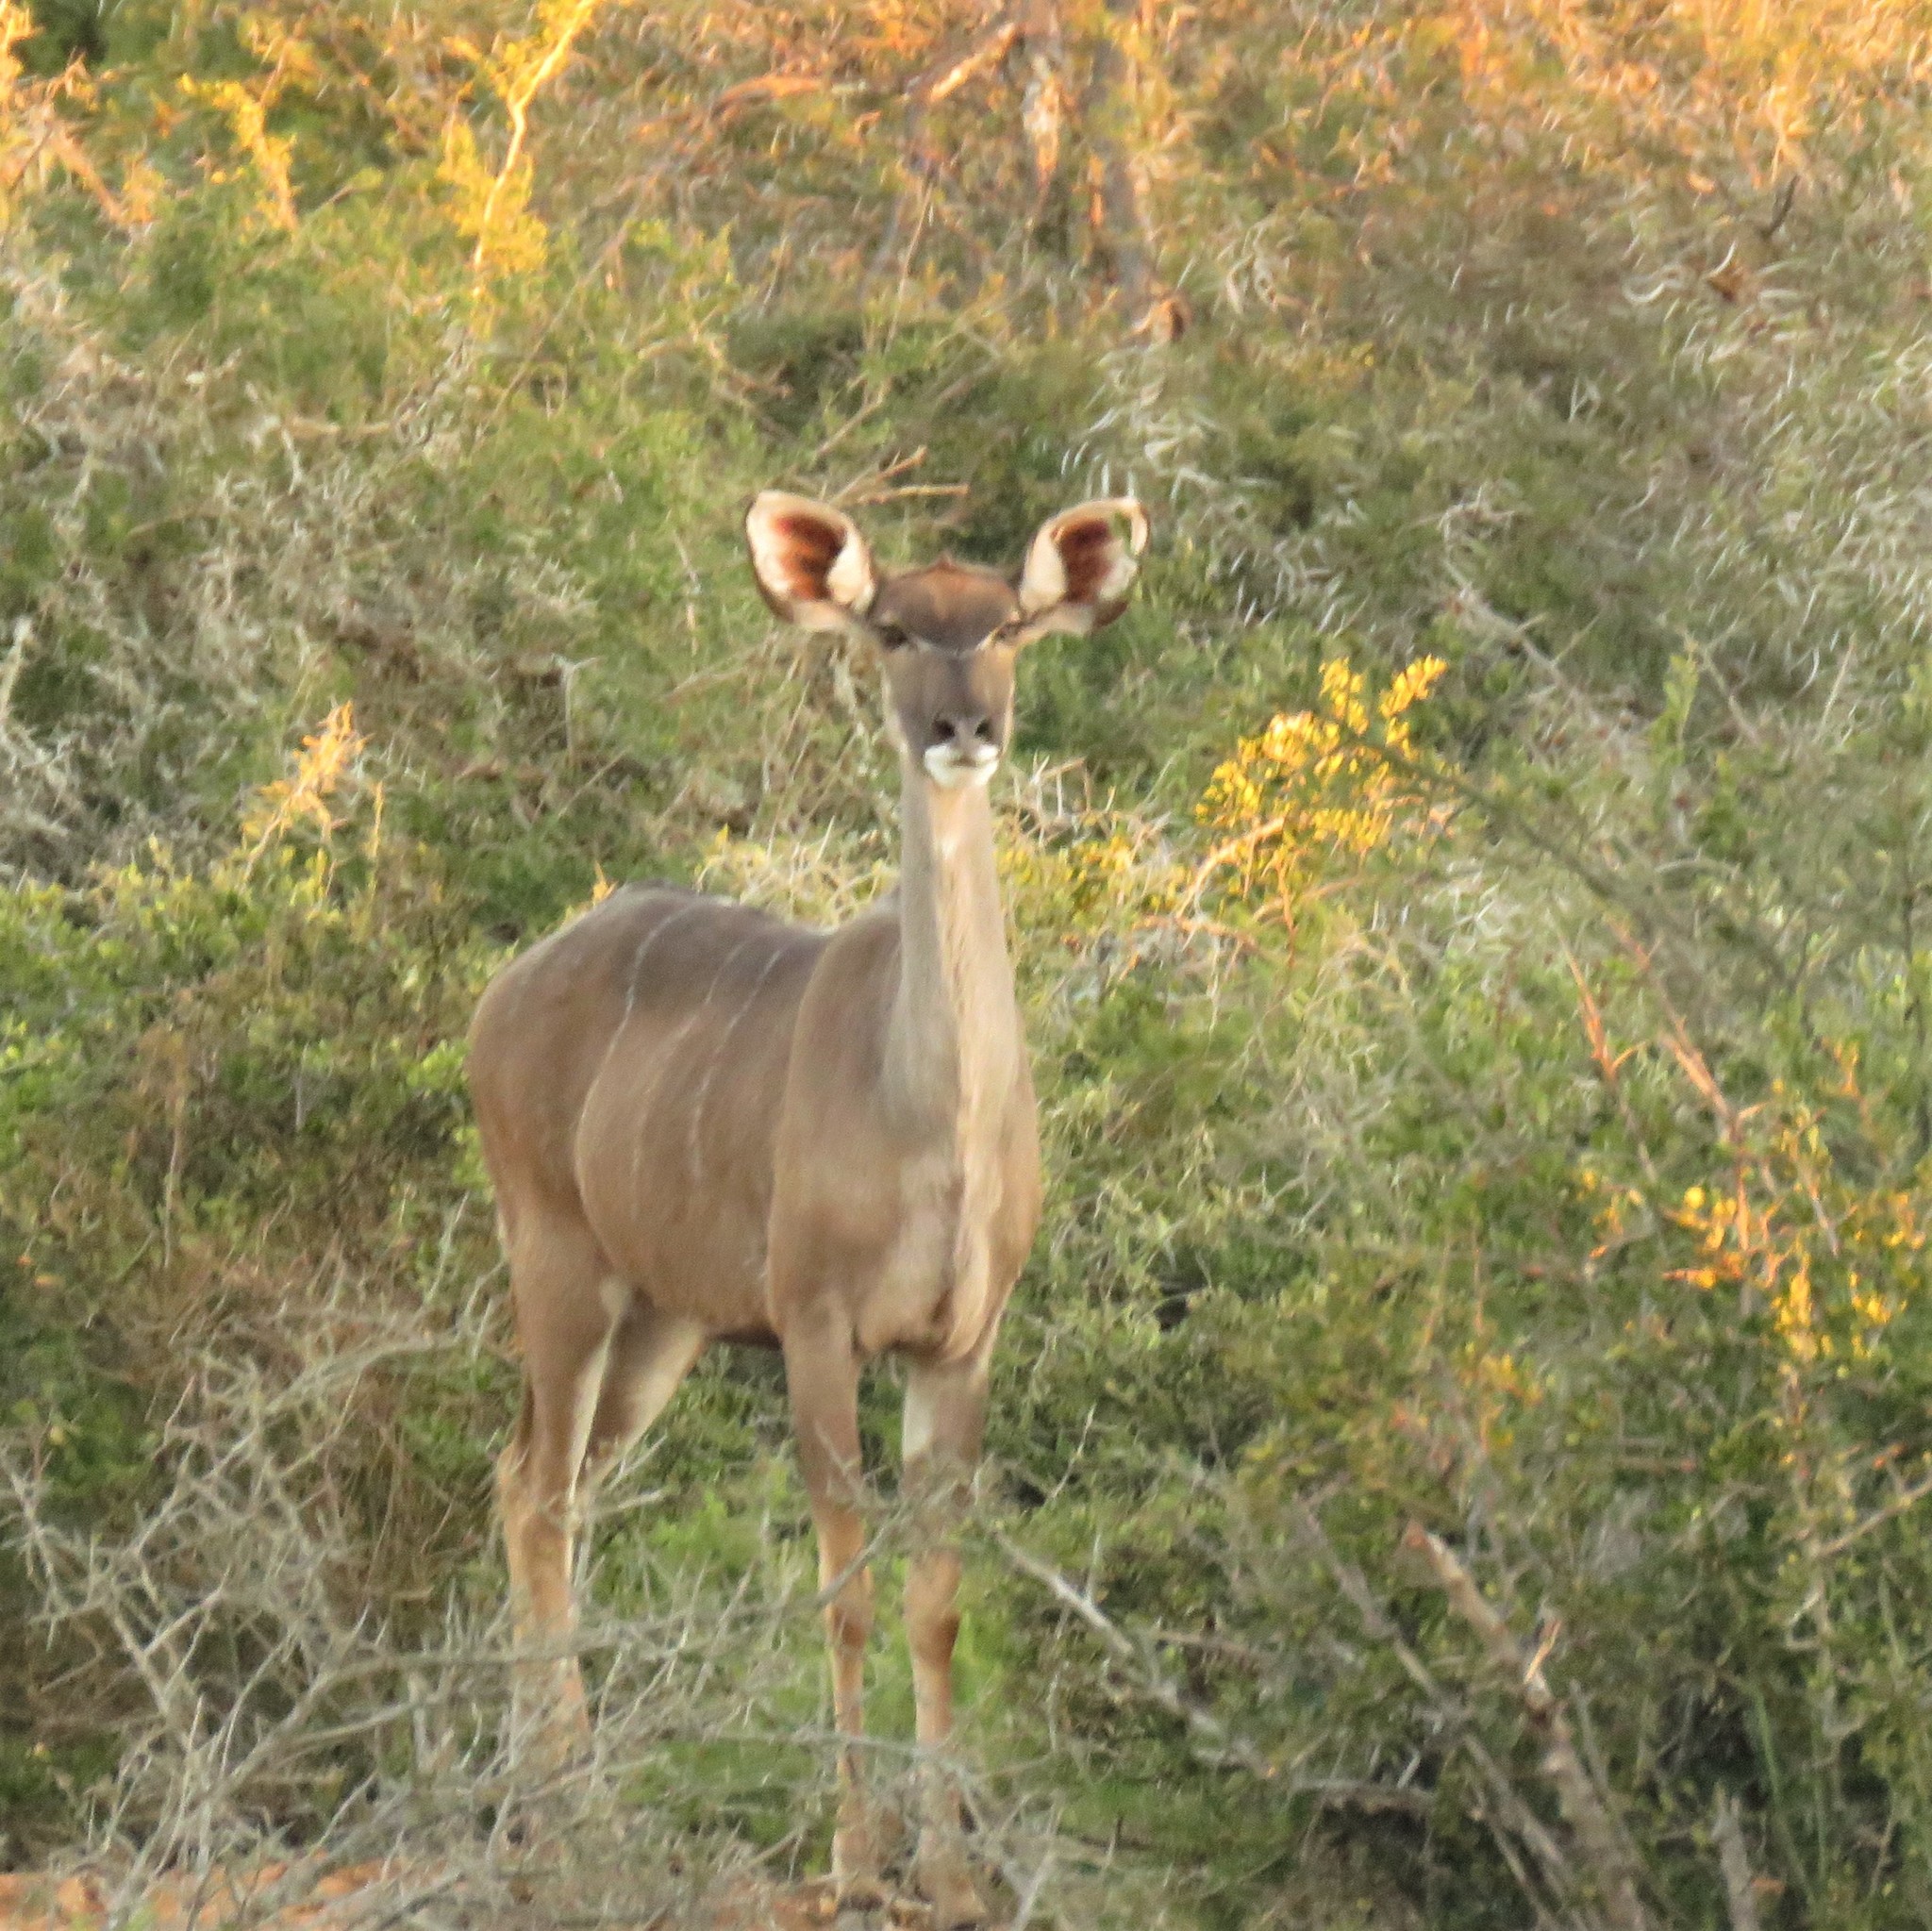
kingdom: Animalia
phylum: Chordata
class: Mammalia
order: Artiodactyla
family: Bovidae
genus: Tragelaphus
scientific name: Tragelaphus strepsiceros
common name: Greater kudu
